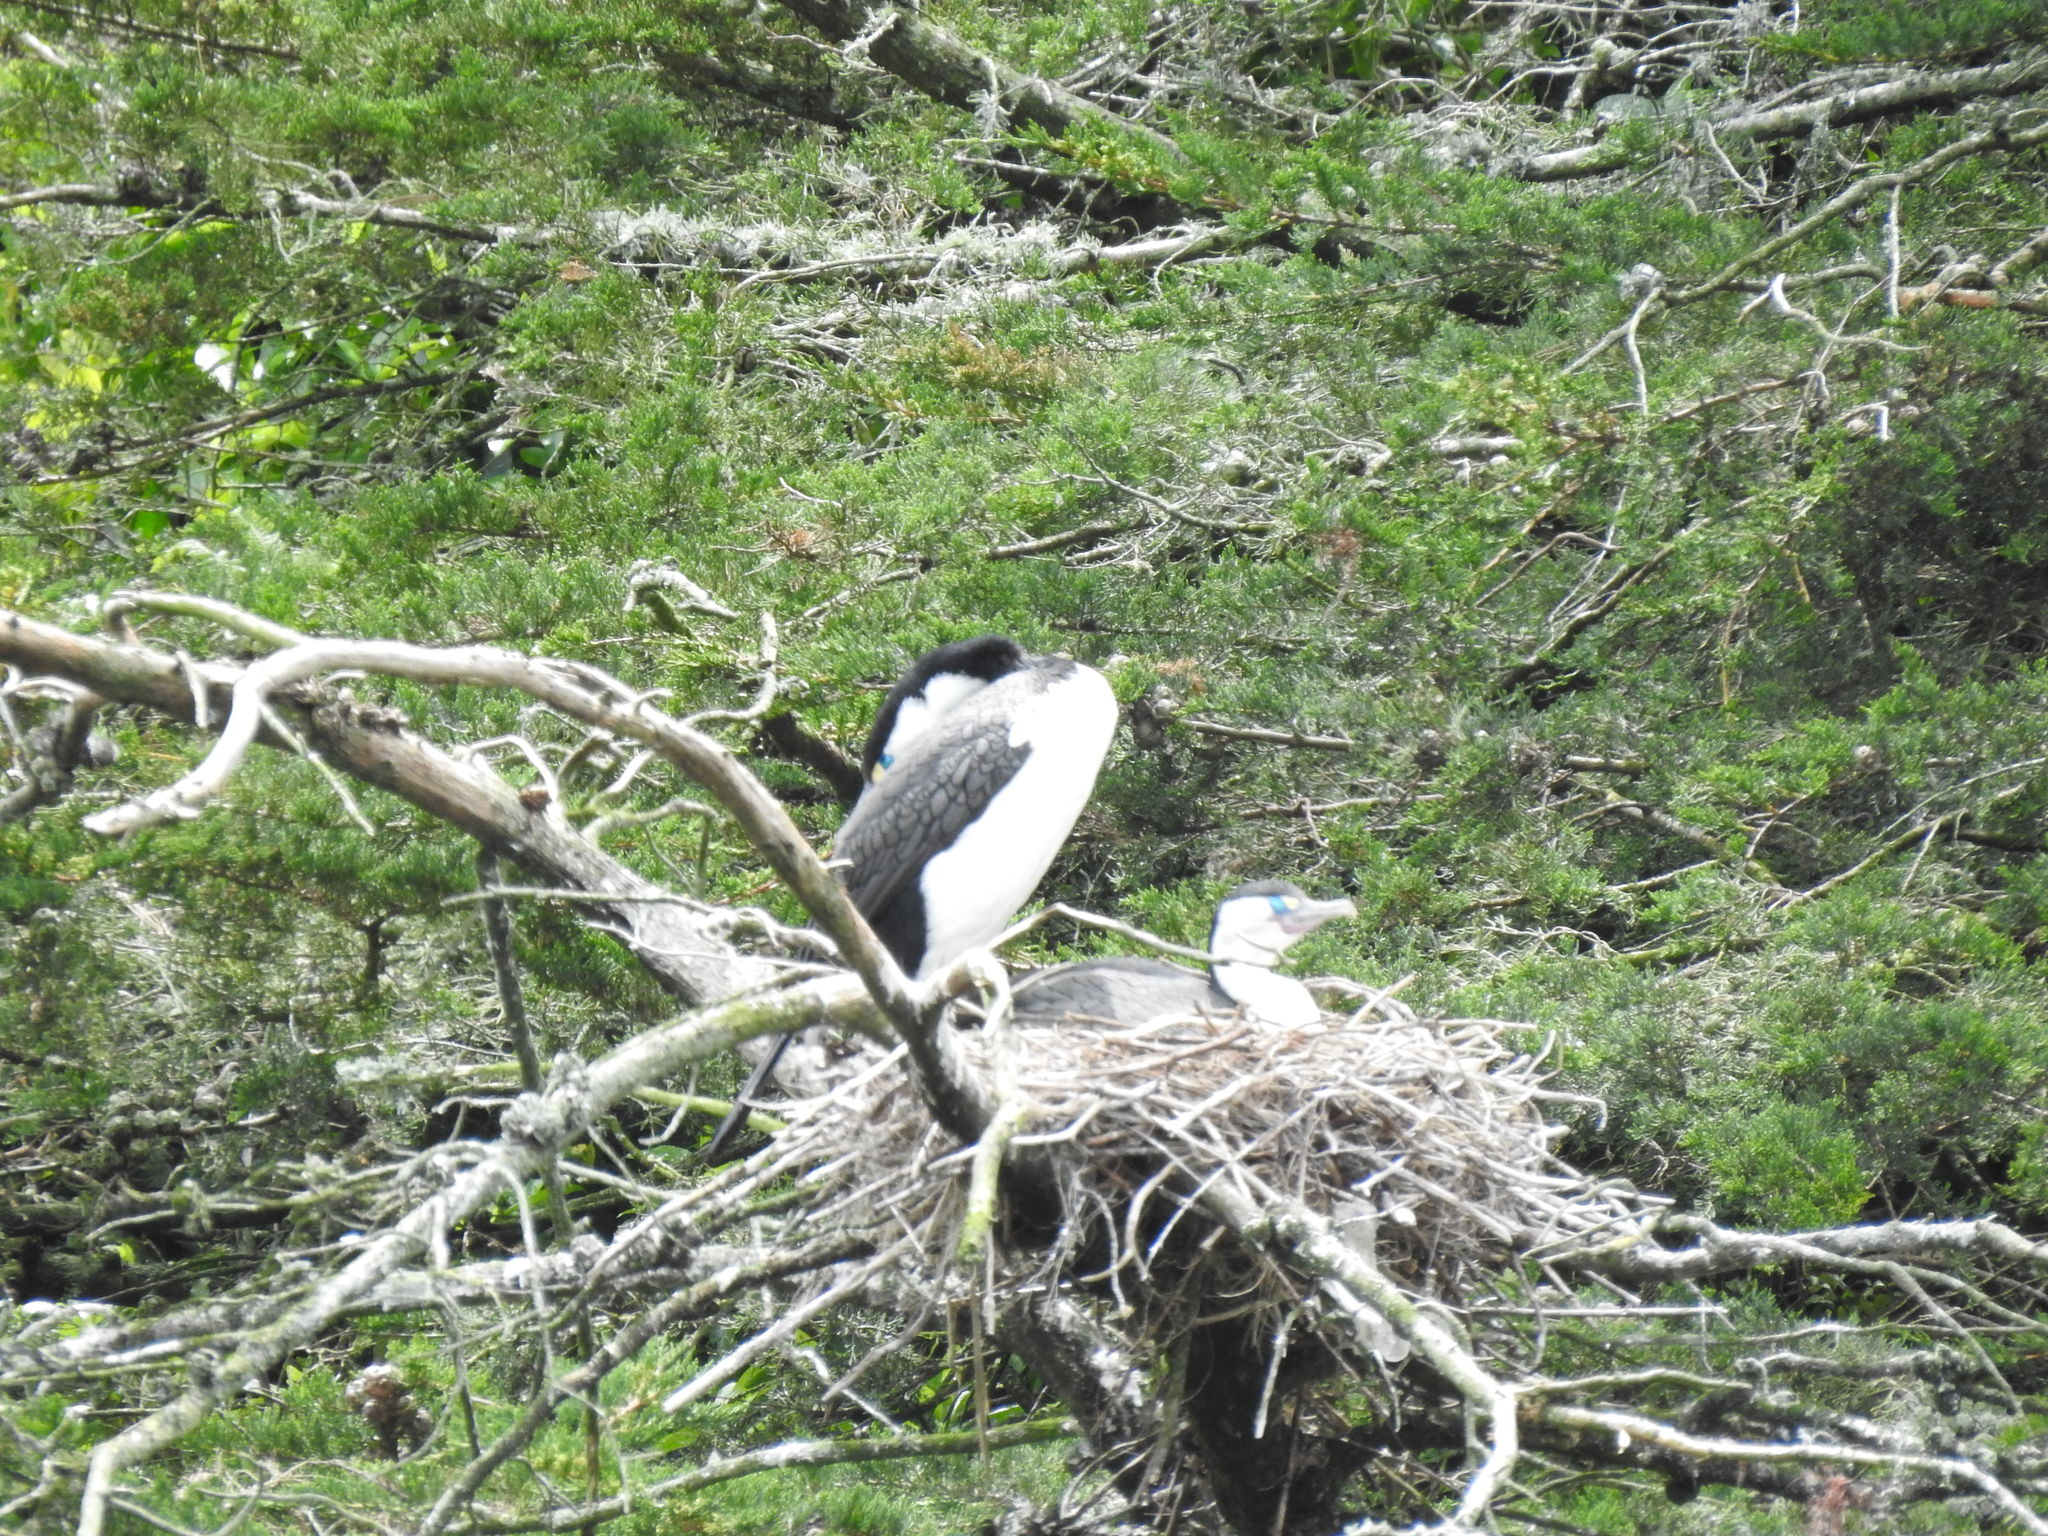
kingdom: Animalia
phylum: Chordata
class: Aves
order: Suliformes
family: Phalacrocoracidae
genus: Phalacrocorax
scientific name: Phalacrocorax varius
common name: Pied cormorant
